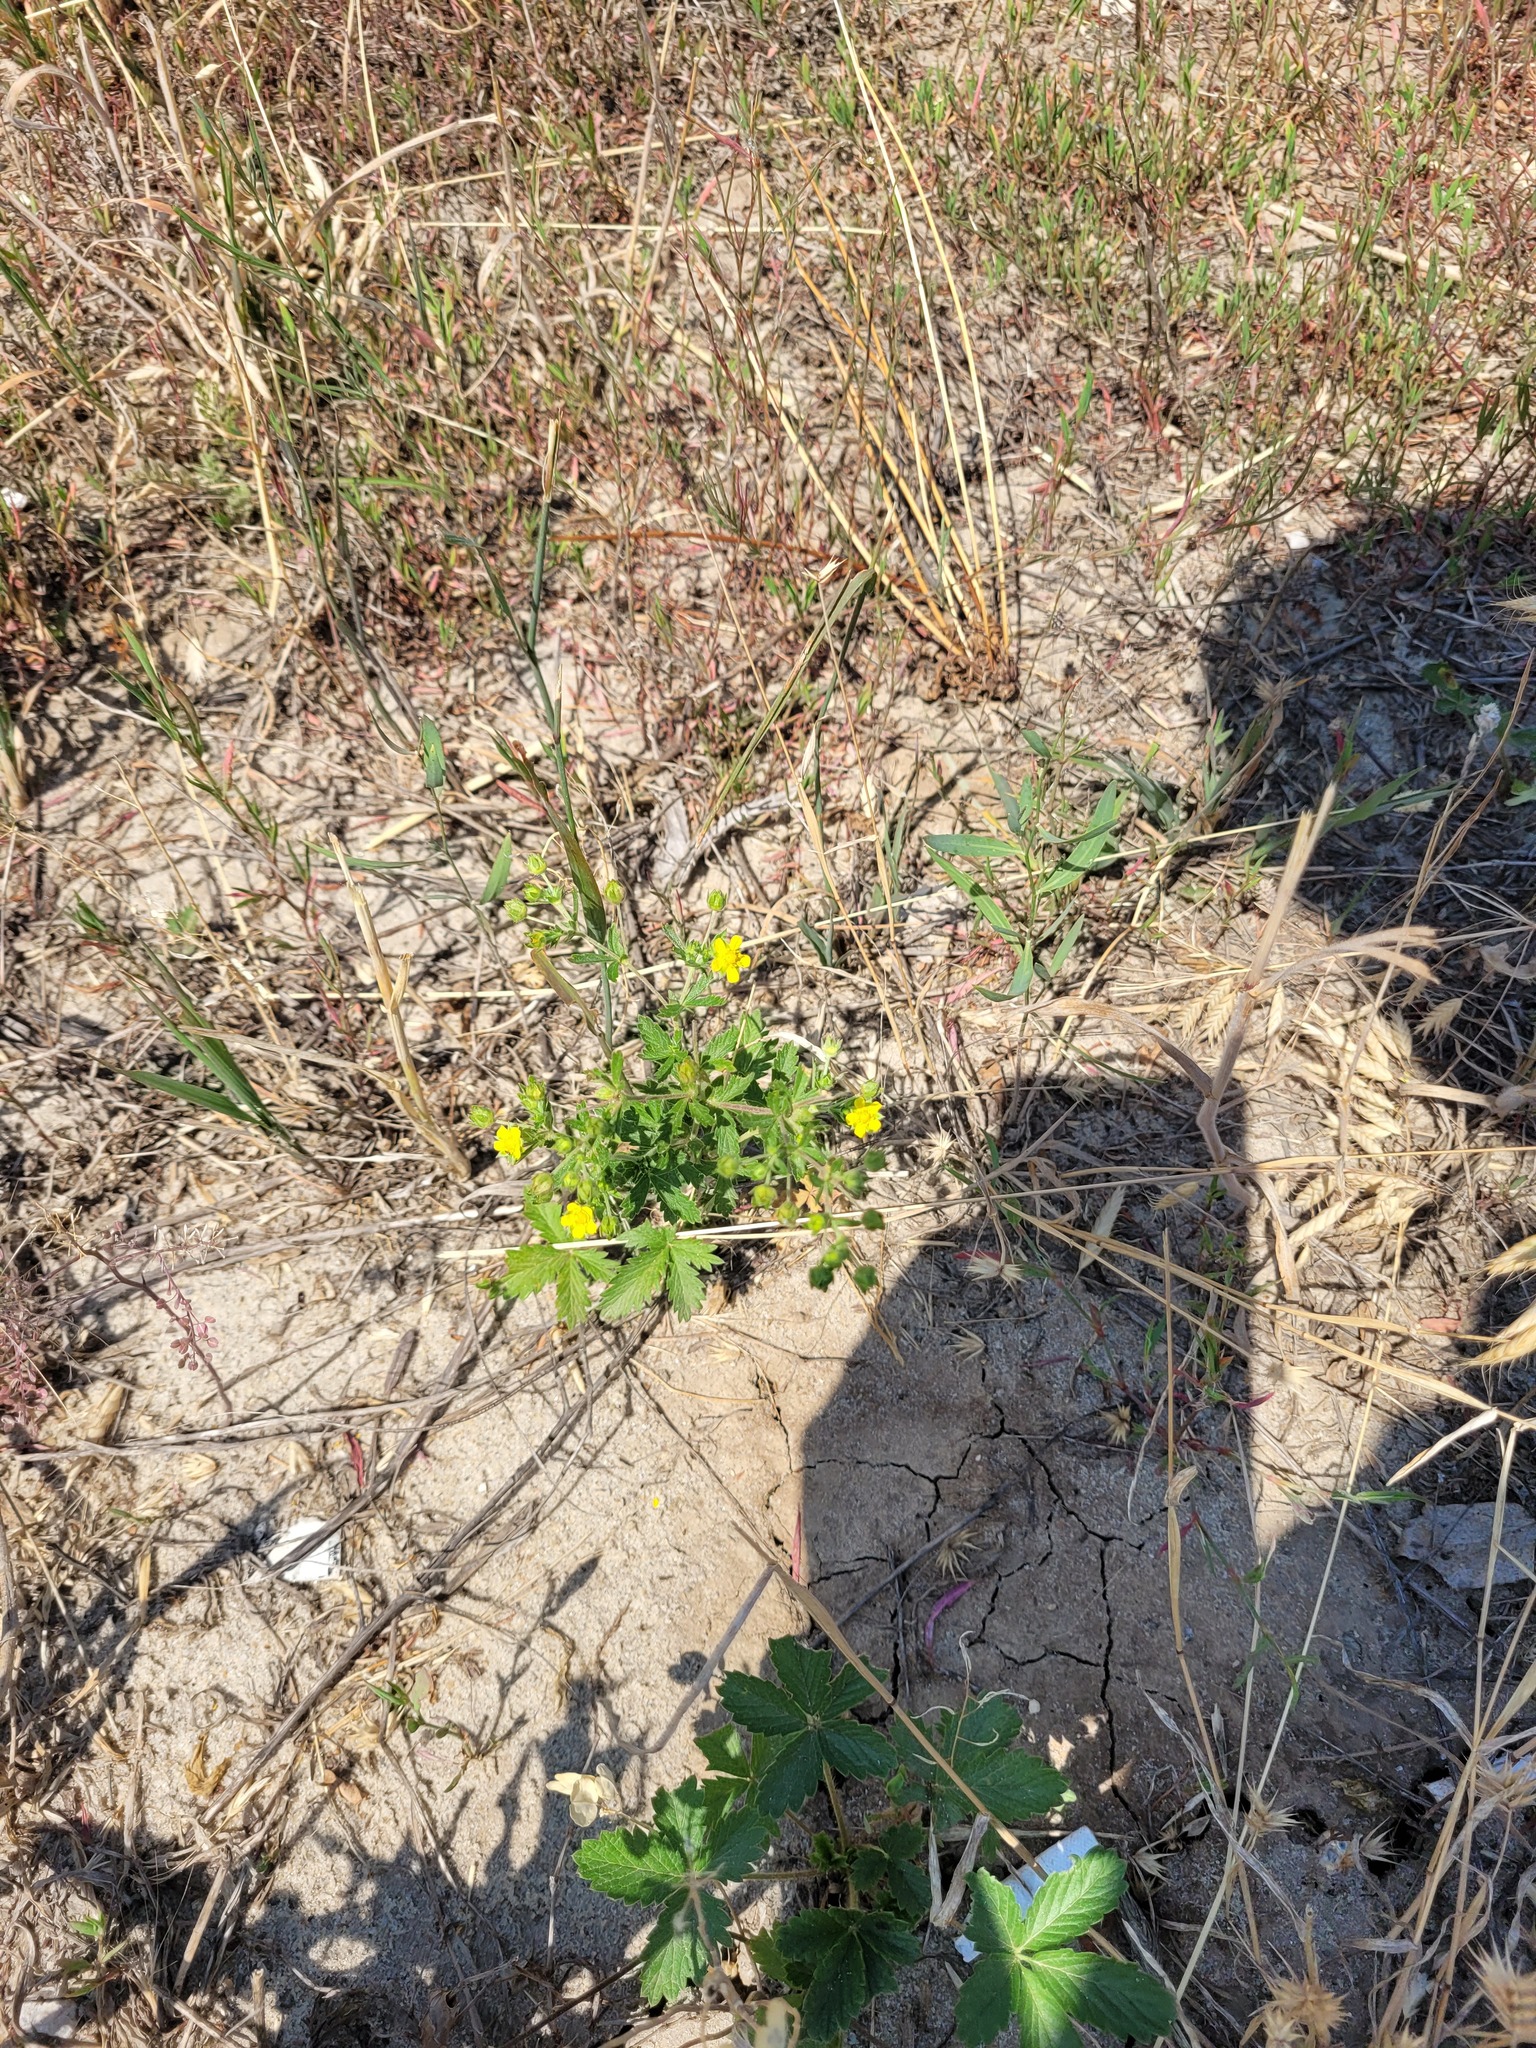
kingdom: Plantae
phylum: Tracheophyta
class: Magnoliopsida
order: Rosales
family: Rosaceae
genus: Potentilla
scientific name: Potentilla intermedia
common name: Downy cinquefoil
